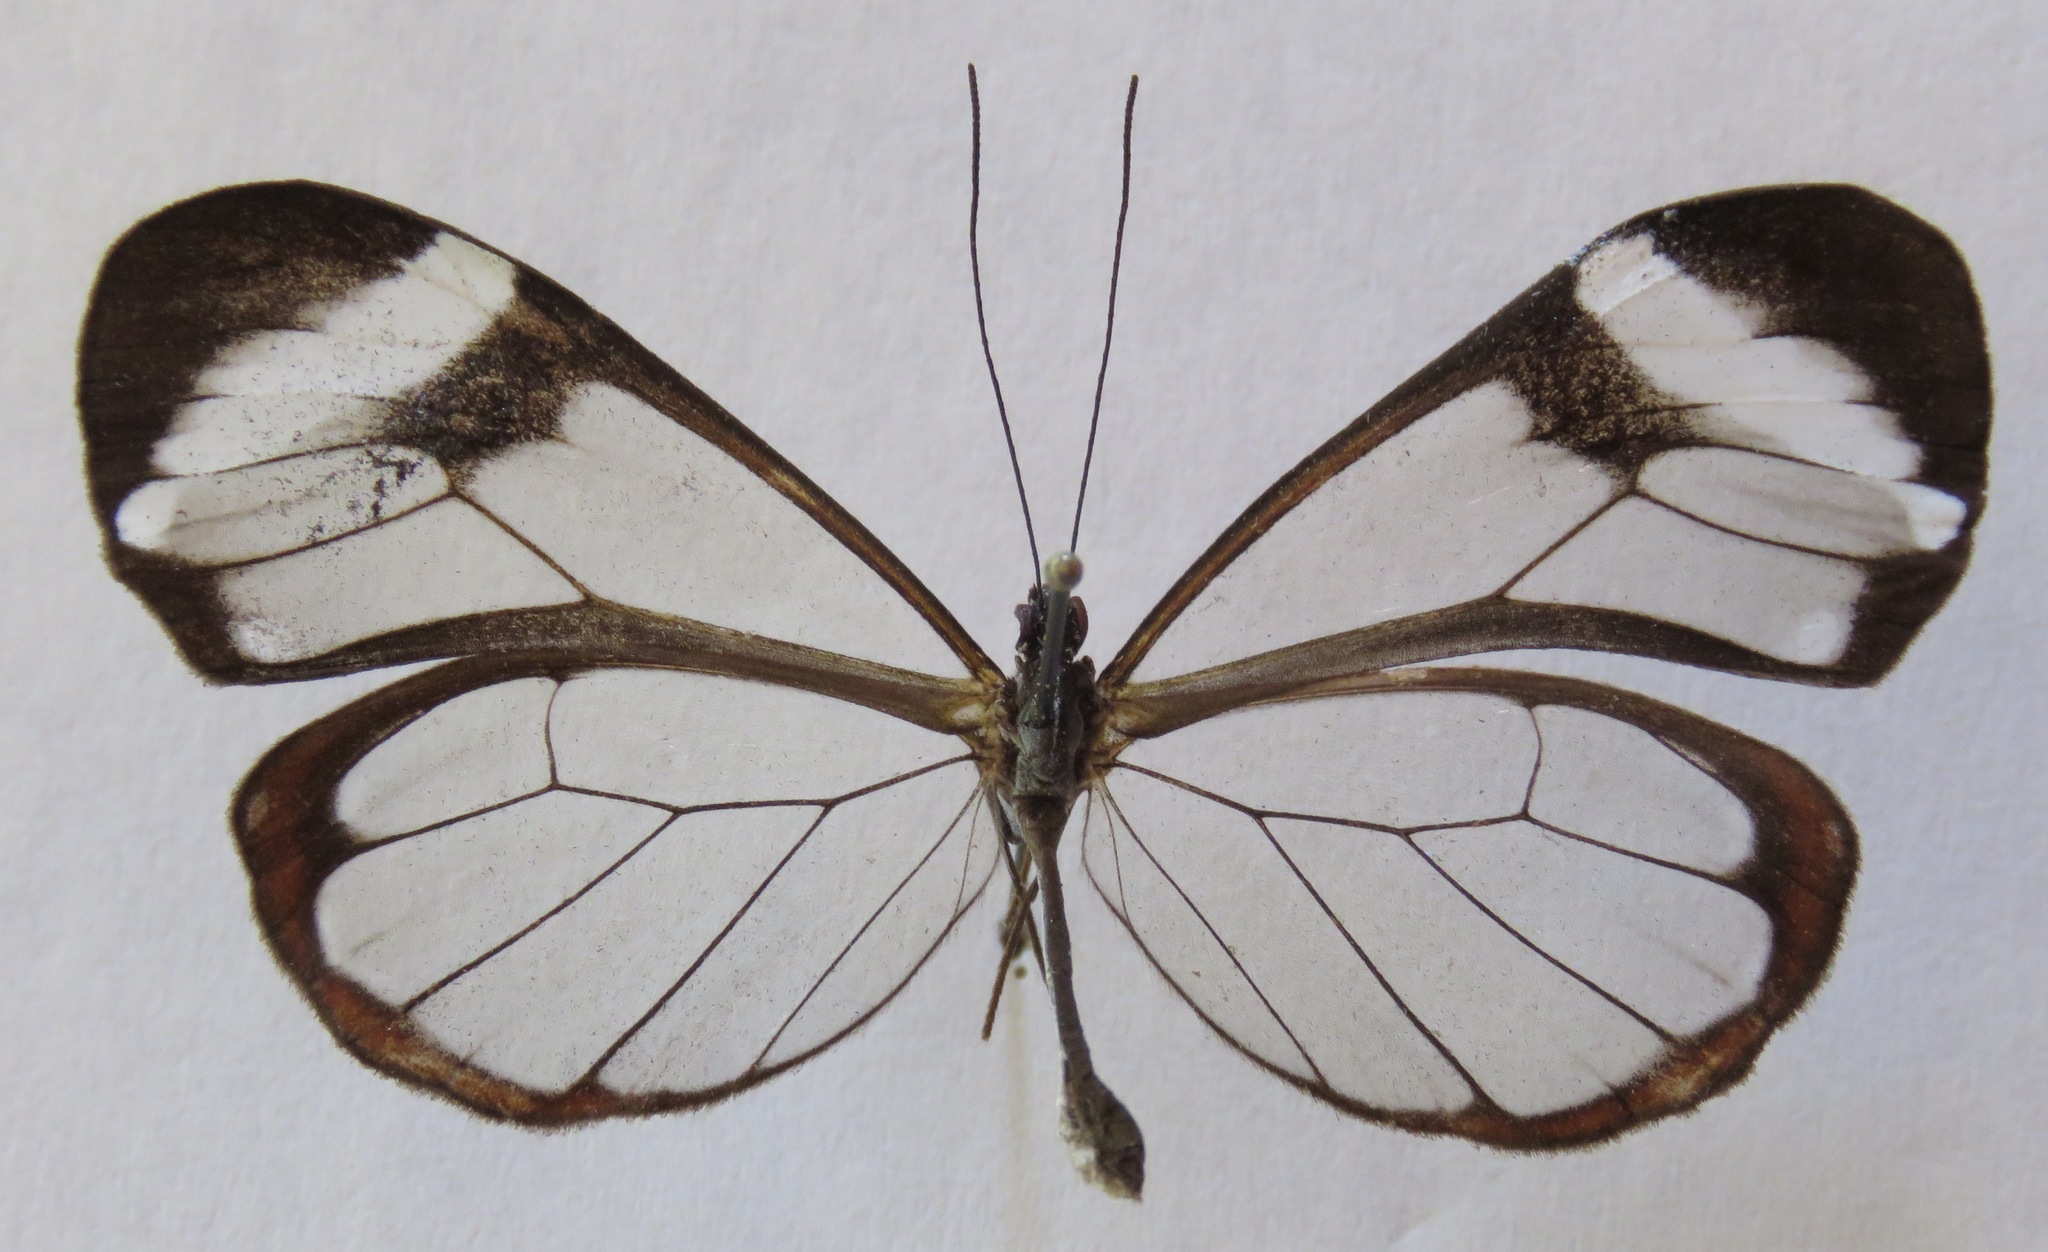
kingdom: Animalia
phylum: Arthropoda
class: Insecta
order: Lepidoptera
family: Nymphalidae
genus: Greta
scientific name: Greta morgane
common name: Thick-tipped greta
